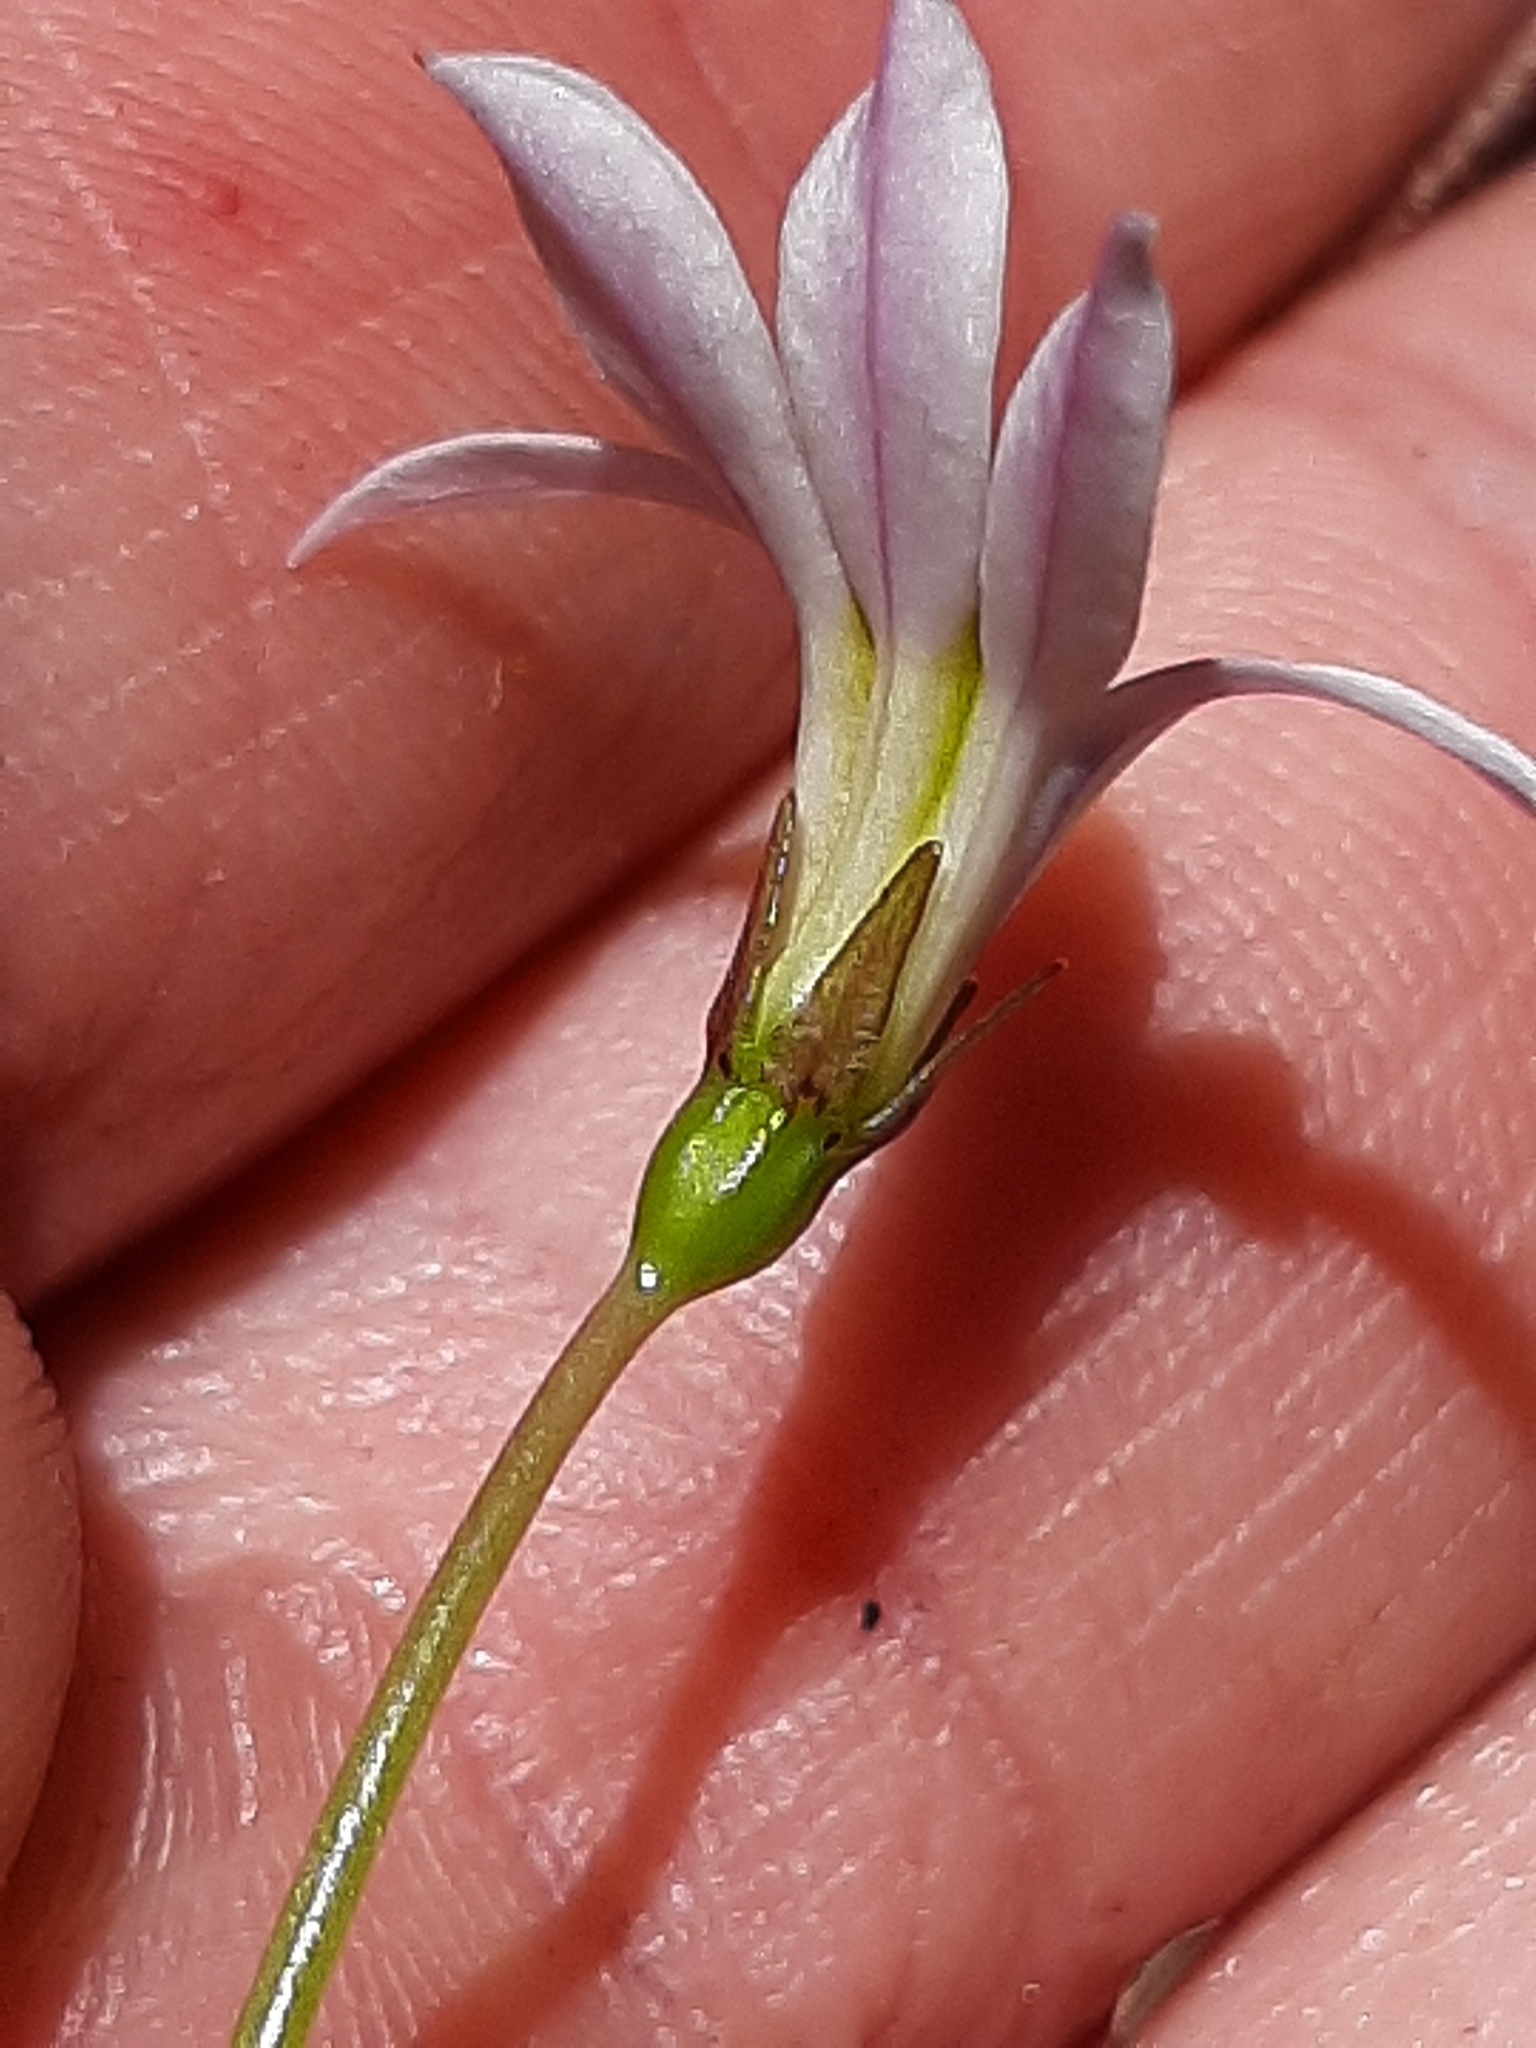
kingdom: Plantae
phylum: Tracheophyta
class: Magnoliopsida
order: Asterales
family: Campanulaceae
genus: Lobelia
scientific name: Lobelia angulata
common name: Lawn lobelia
